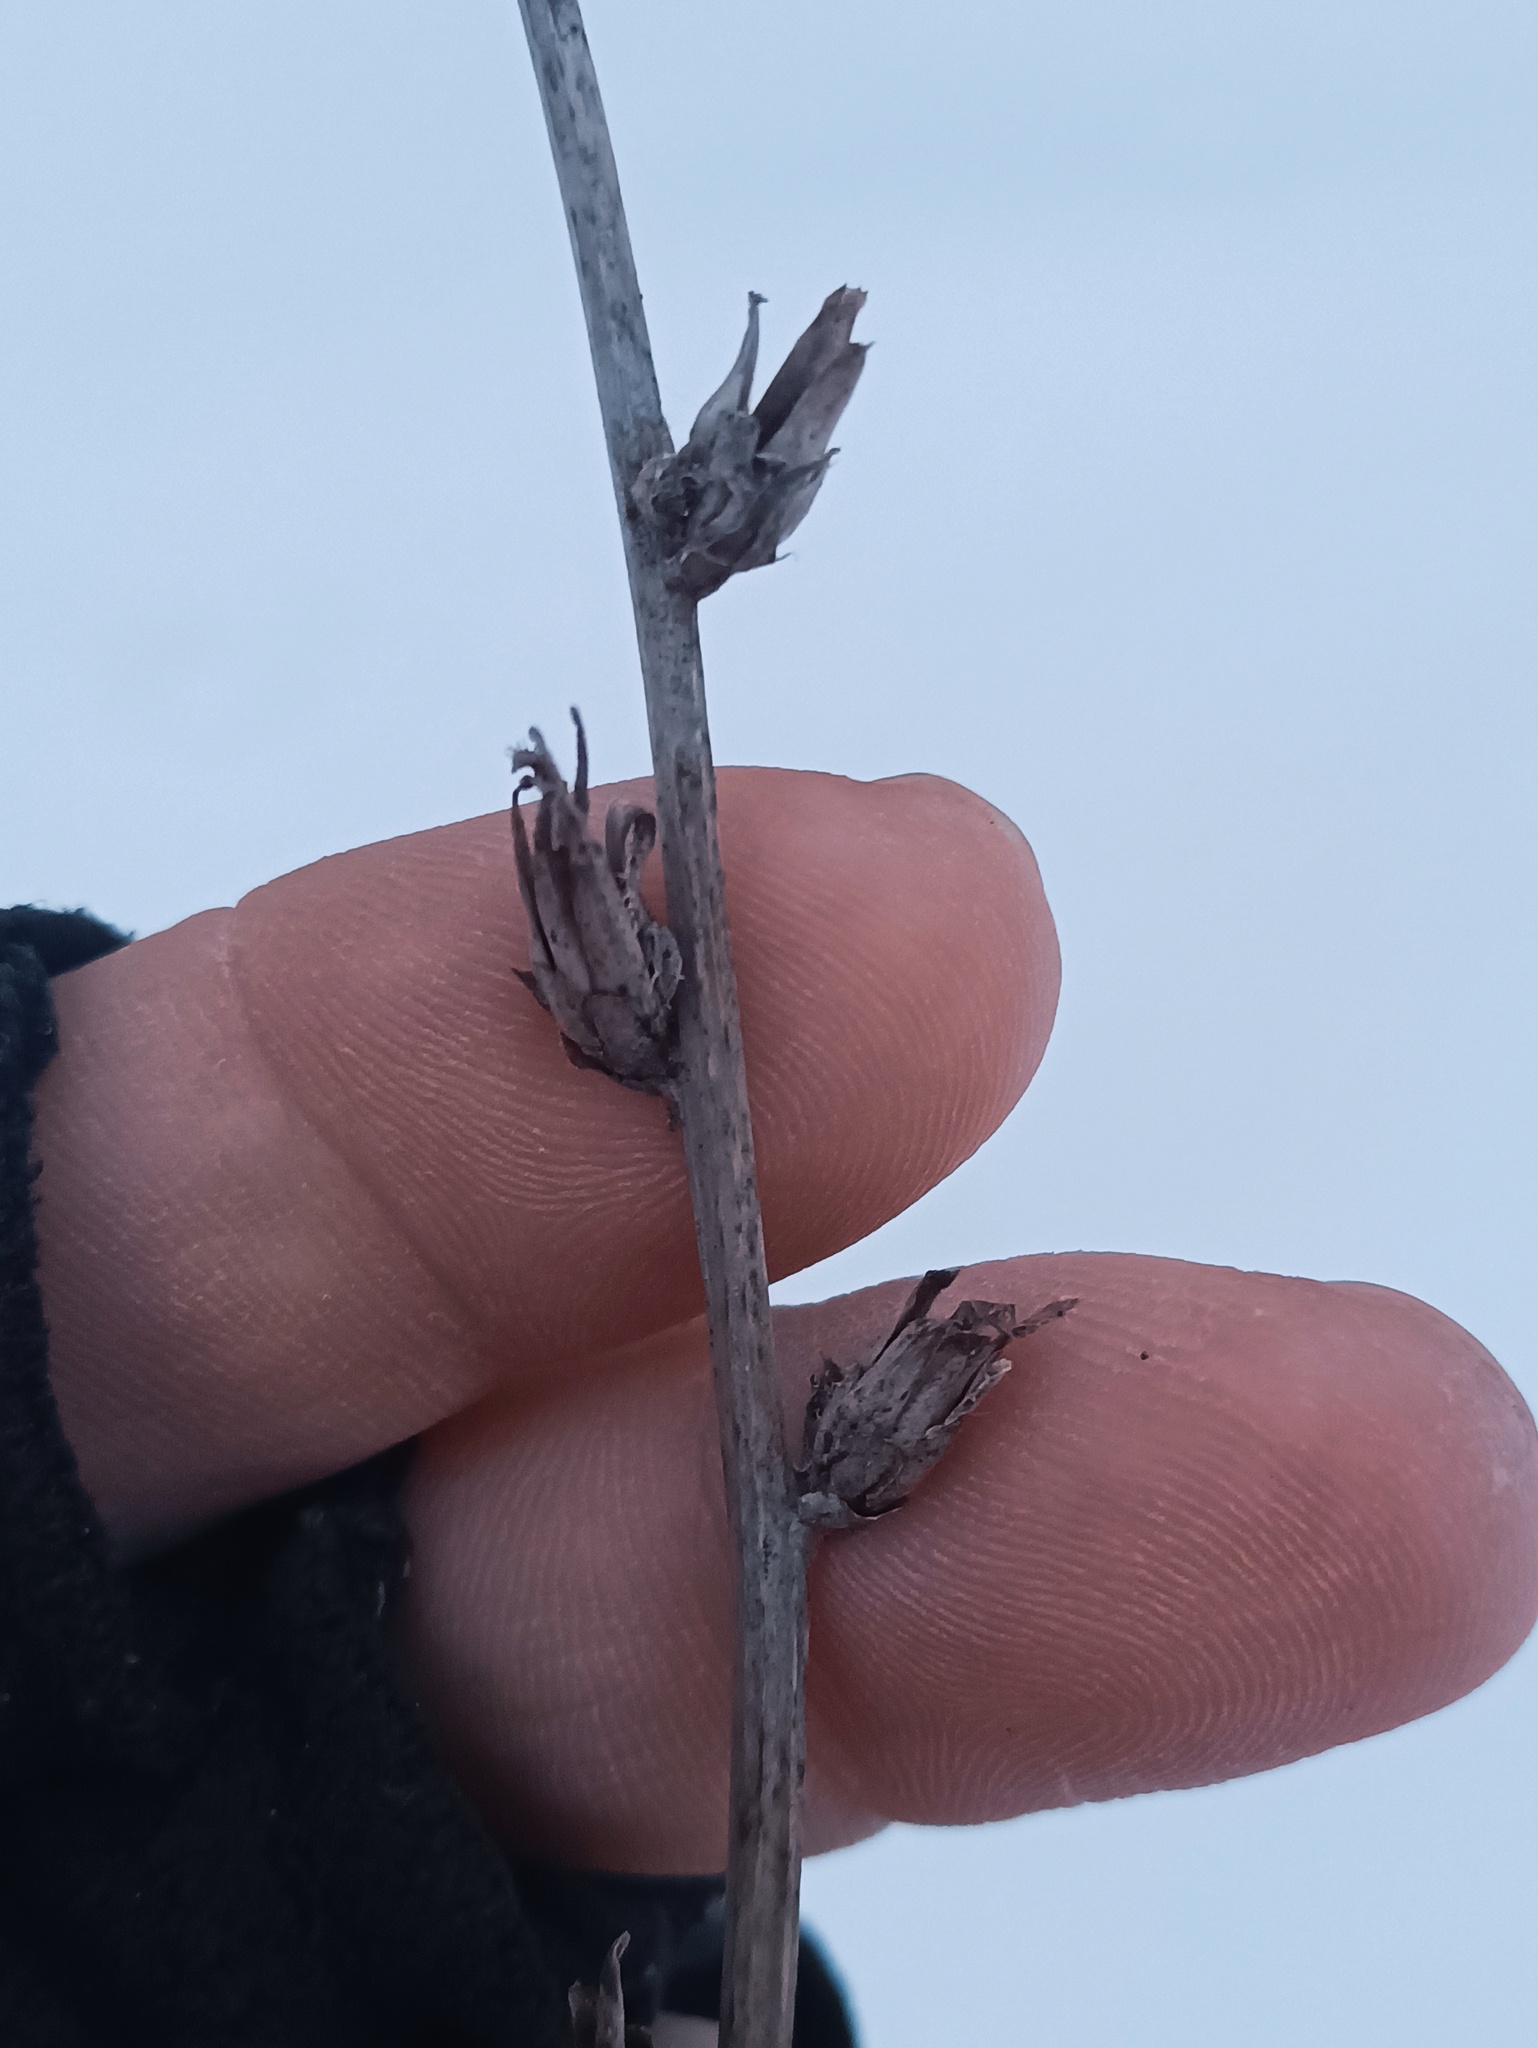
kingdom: Plantae
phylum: Tracheophyta
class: Magnoliopsida
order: Asterales
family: Asteraceae
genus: Cichorium
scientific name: Cichorium intybus
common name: Chicory
